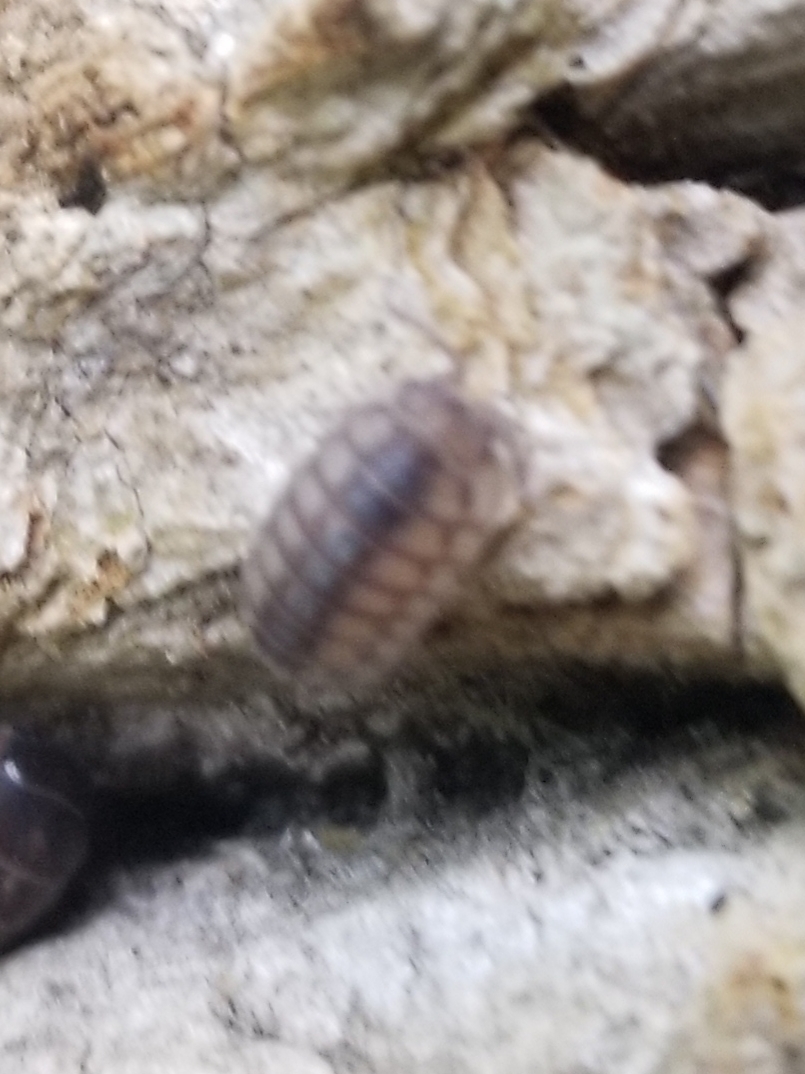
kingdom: Animalia
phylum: Arthropoda
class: Malacostraca
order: Isopoda
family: Armadillidiidae
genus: Armadillidium
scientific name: Armadillidium nasatum
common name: Isopod
